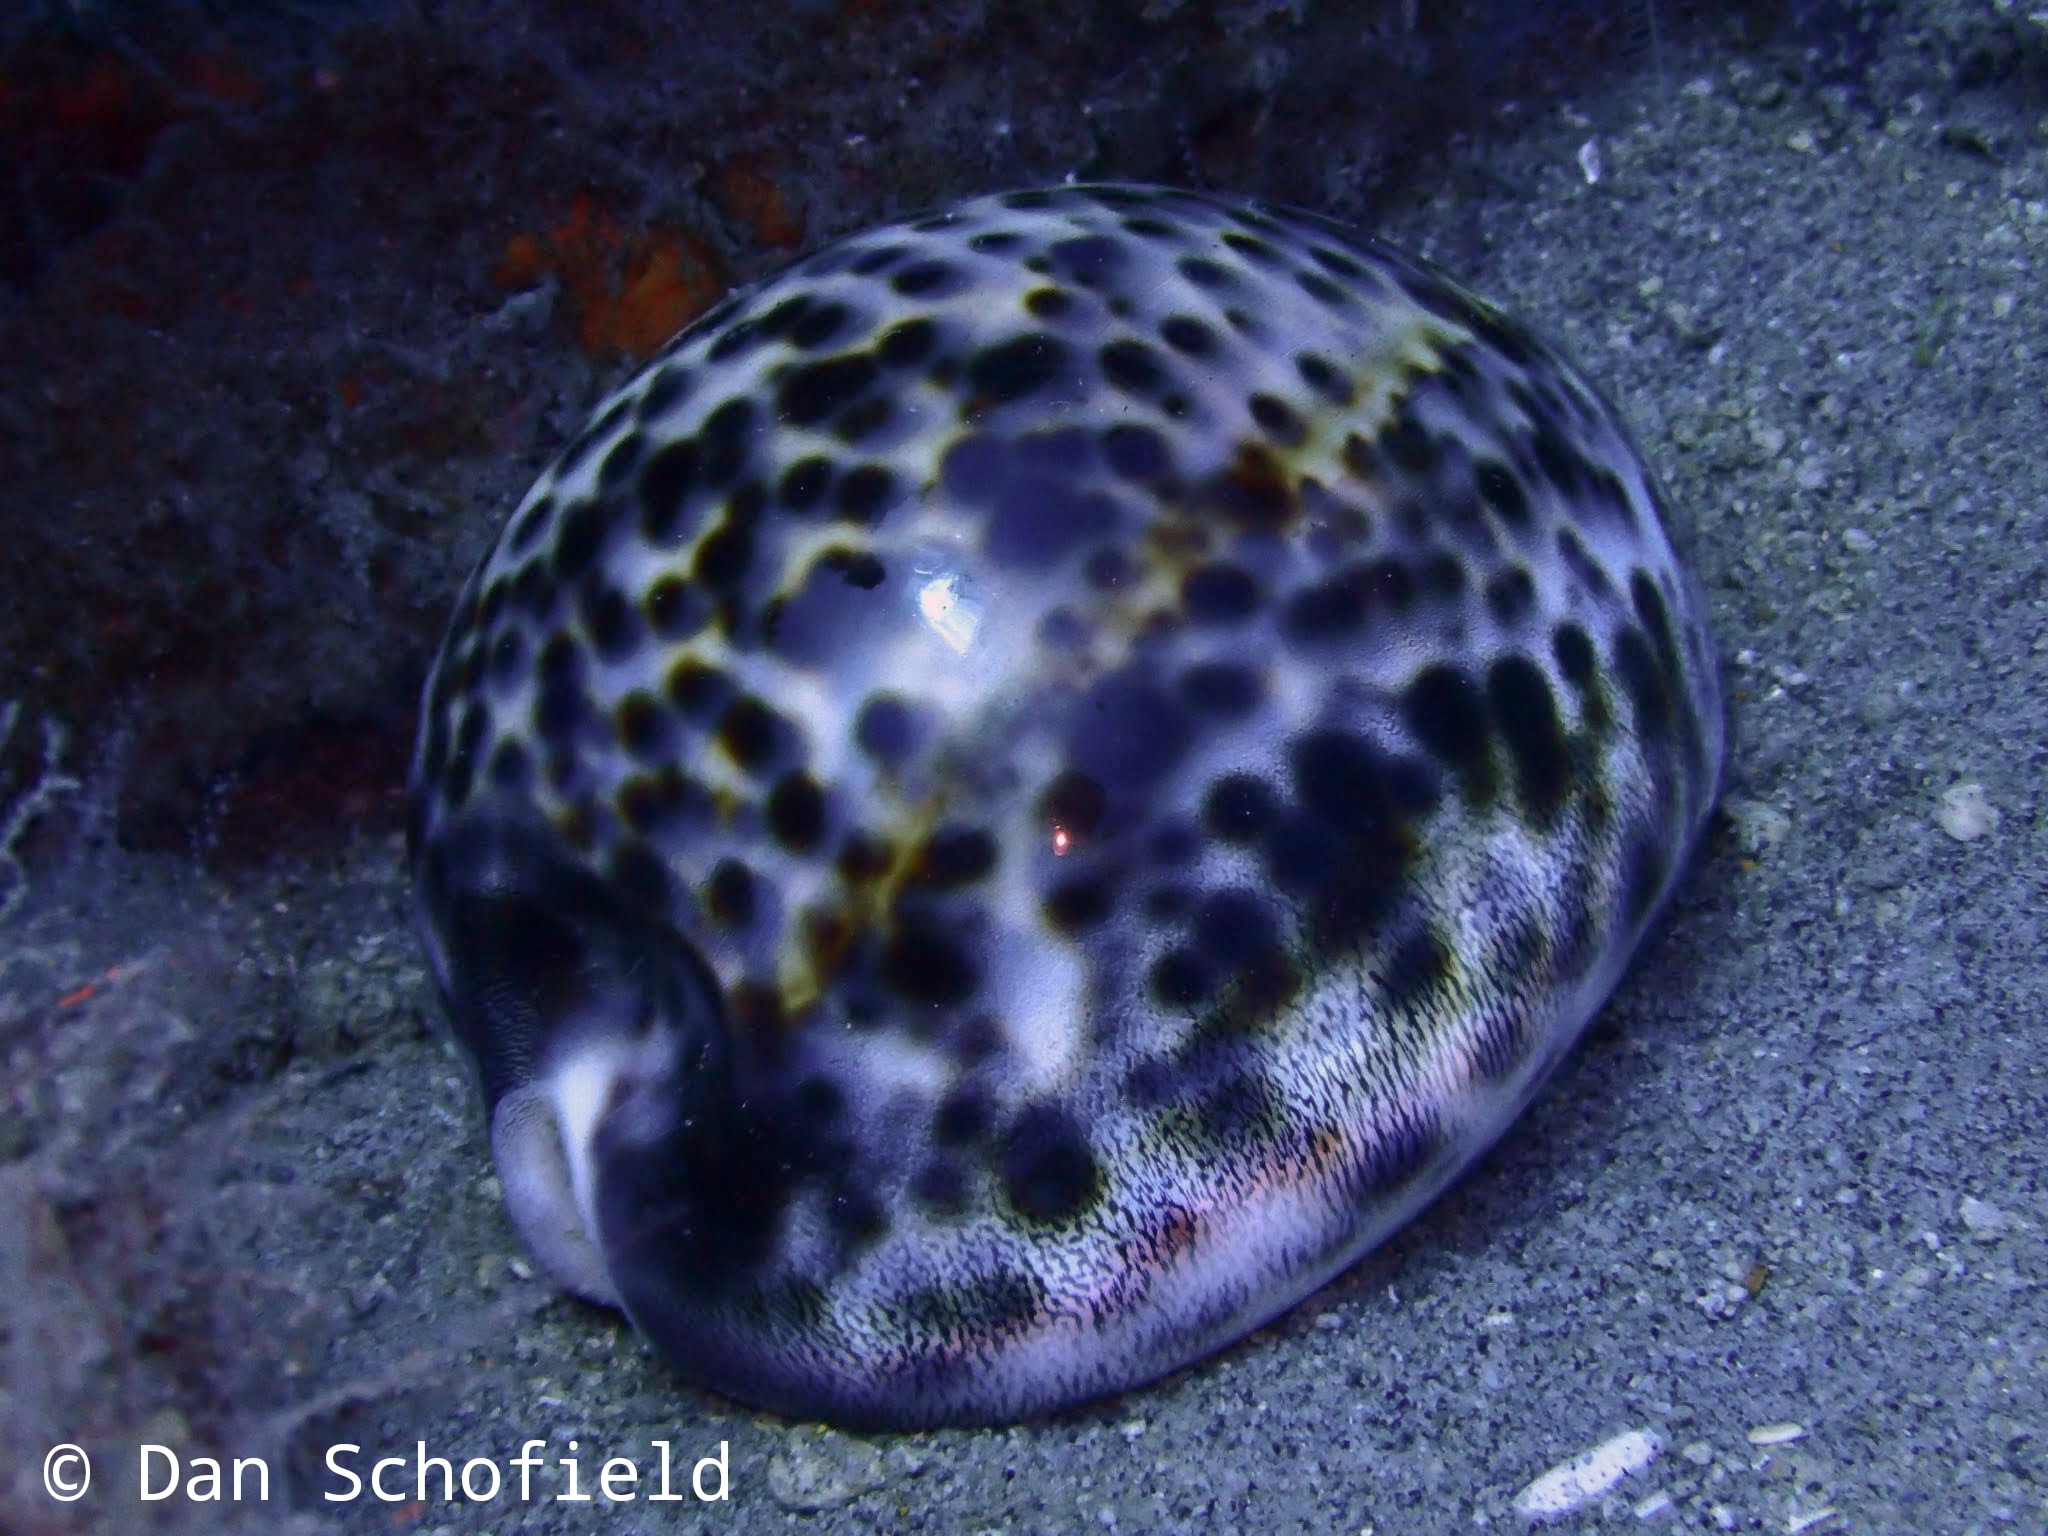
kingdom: Animalia
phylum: Mollusca
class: Gastropoda
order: Littorinimorpha
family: Cypraeidae
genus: Cypraea
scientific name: Cypraea tigris
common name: Tiger cowrie
